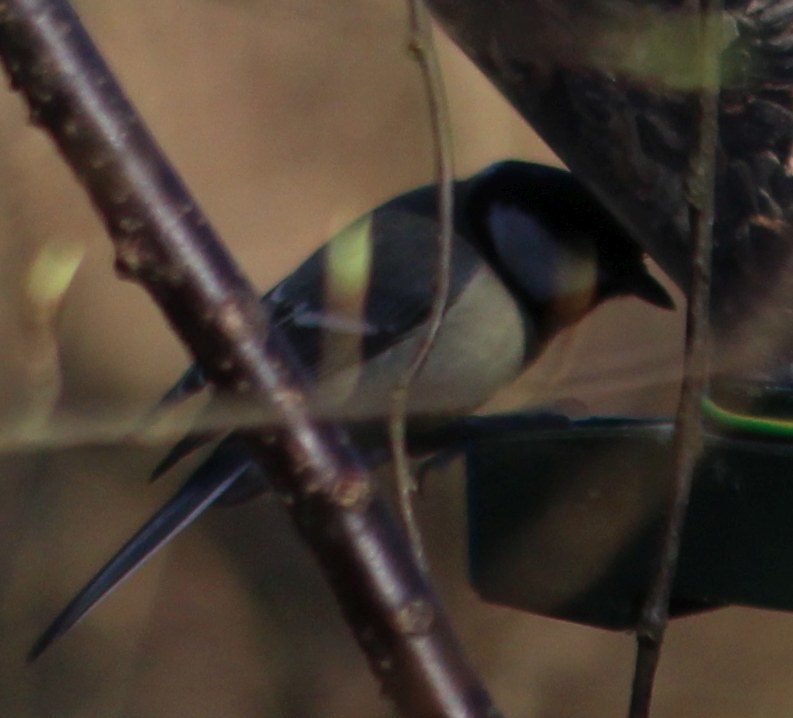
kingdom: Animalia
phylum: Chordata
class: Aves
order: Passeriformes
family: Paridae
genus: Parus
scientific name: Parus major
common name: Great tit
